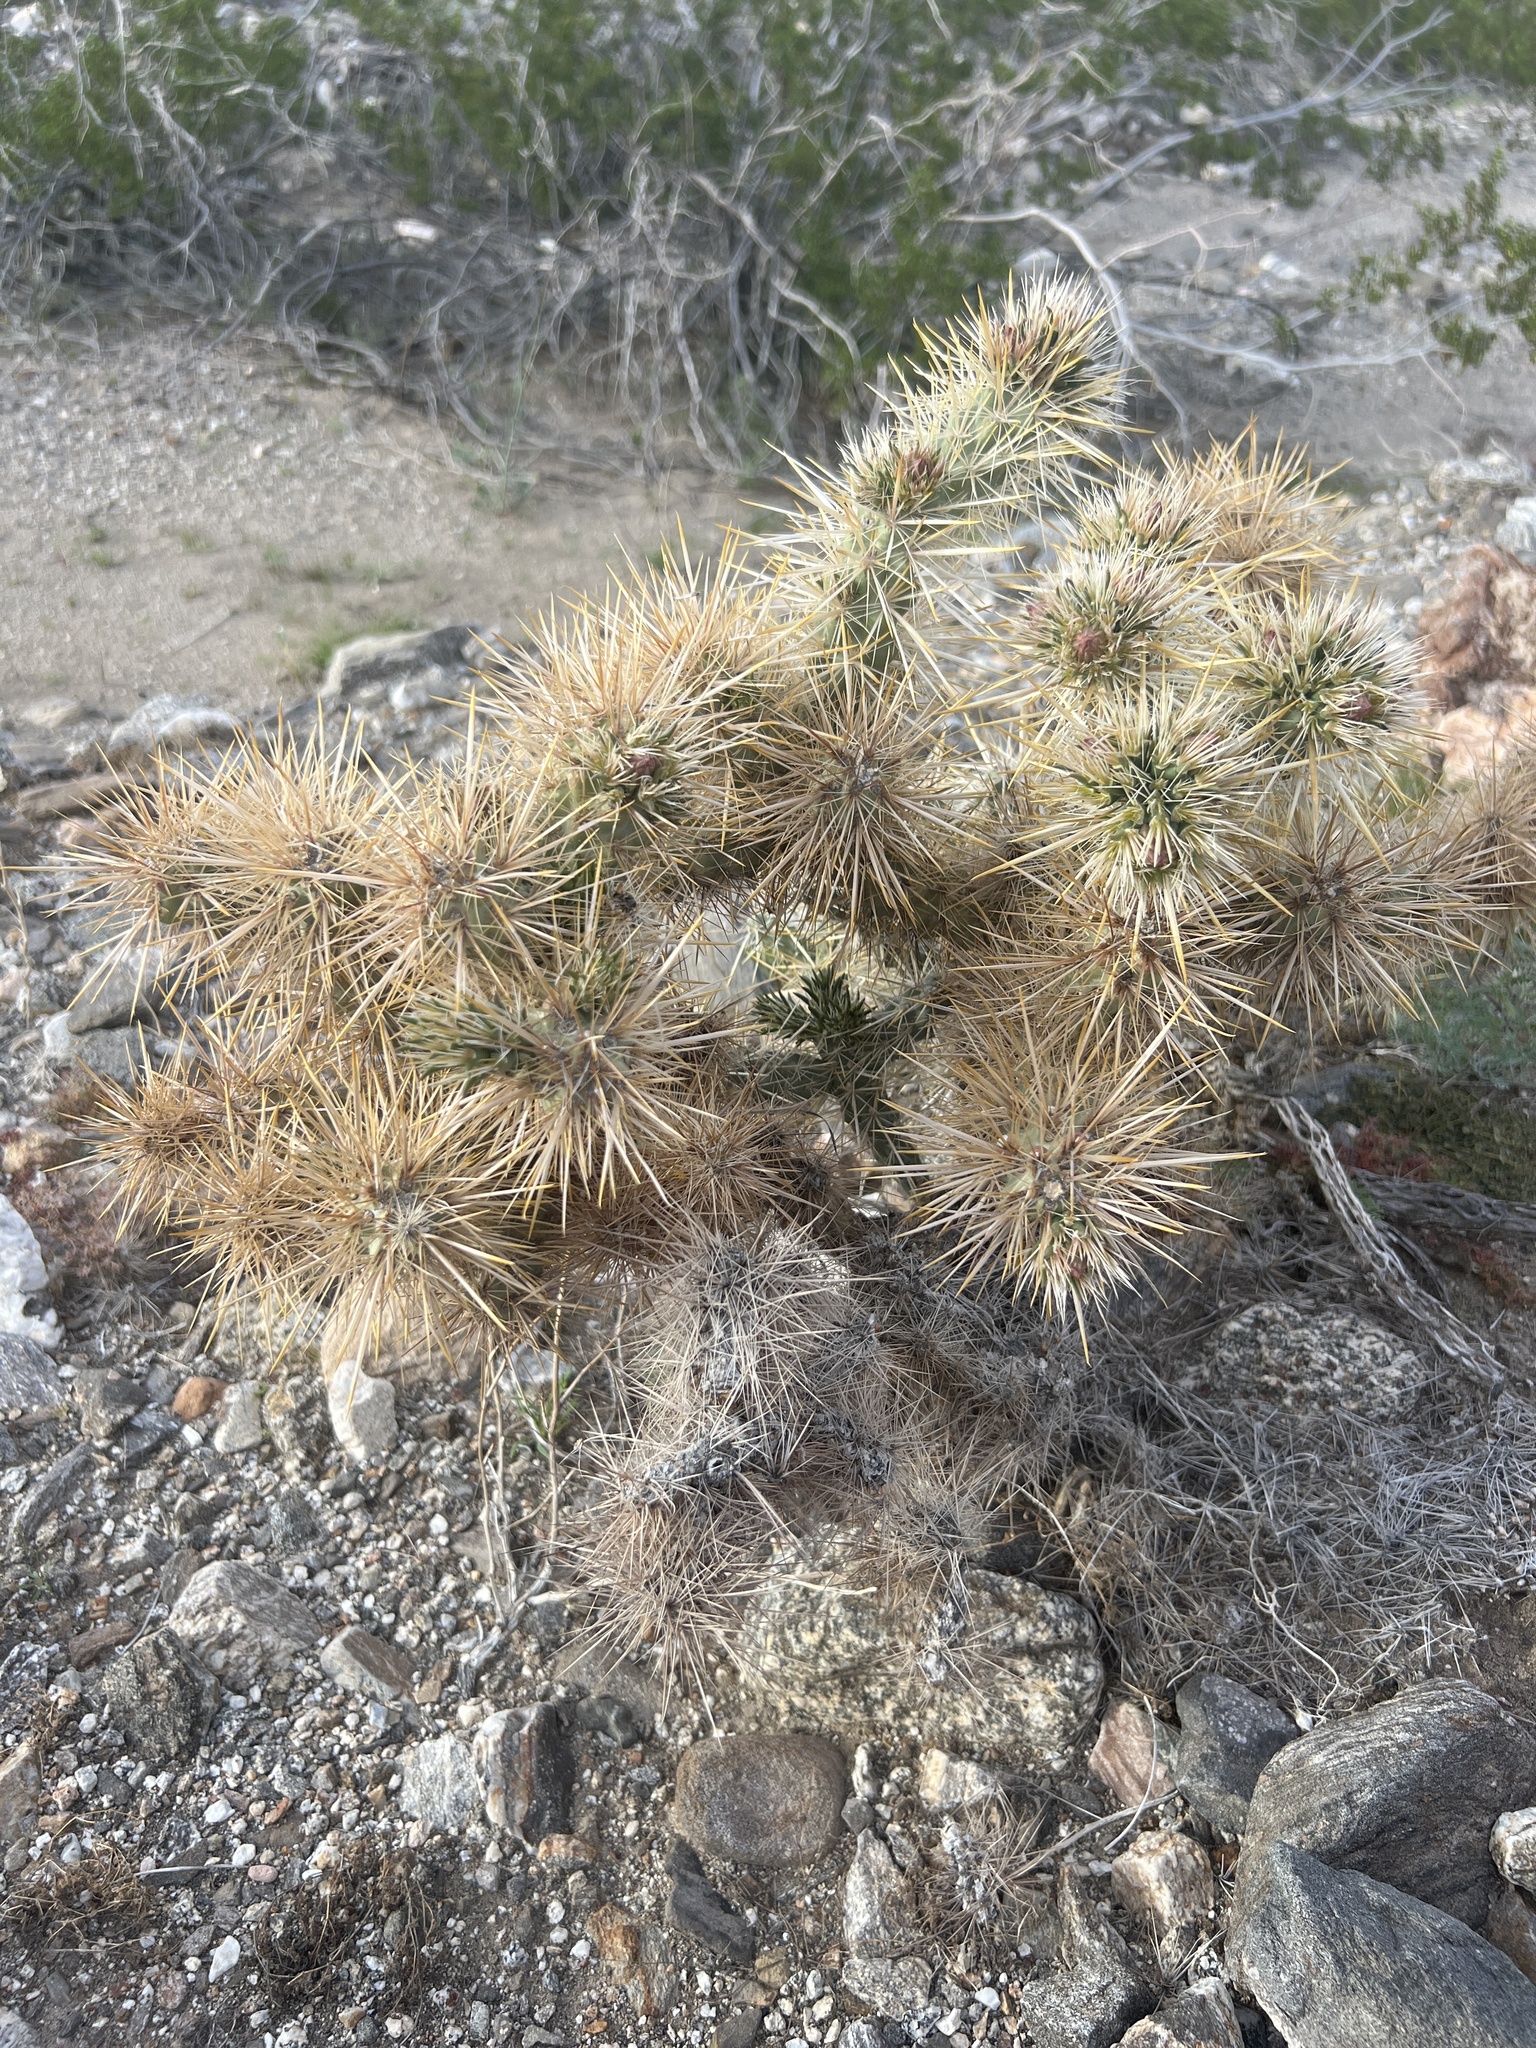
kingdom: Plantae
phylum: Tracheophyta
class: Magnoliopsida
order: Caryophyllales
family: Cactaceae
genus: Cylindropuntia
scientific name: Cylindropuntia echinocarpa
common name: Ground cholla
